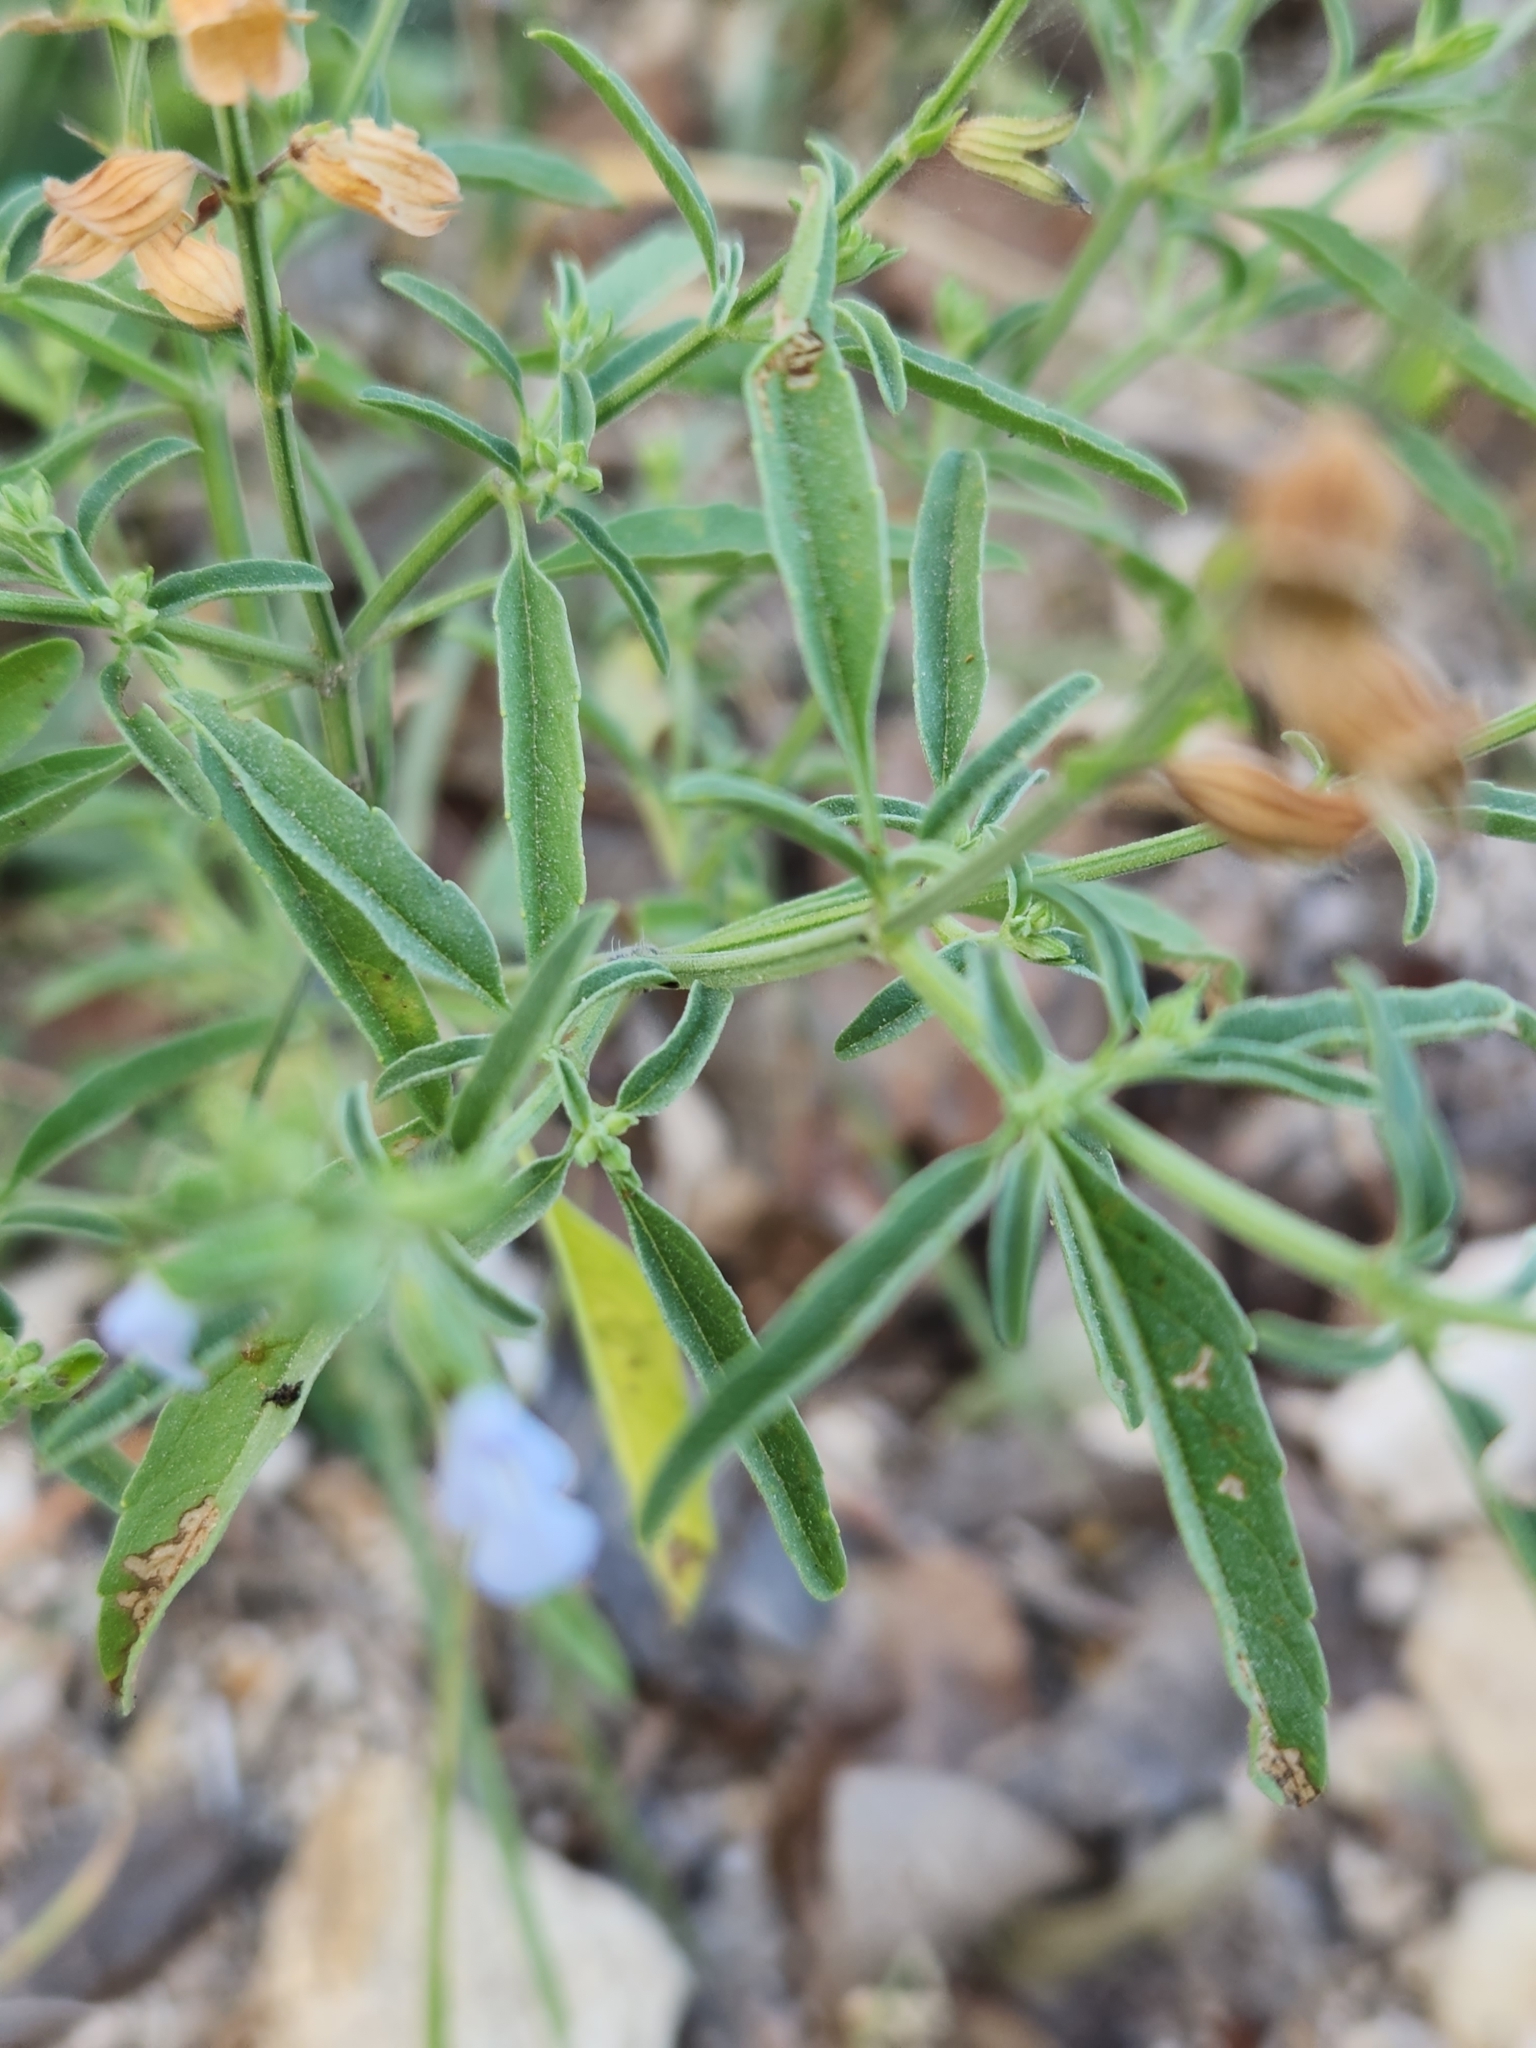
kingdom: Plantae
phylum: Tracheophyta
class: Magnoliopsida
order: Lamiales
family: Lamiaceae
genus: Salvia
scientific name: Salvia reflexa
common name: Mintweed
